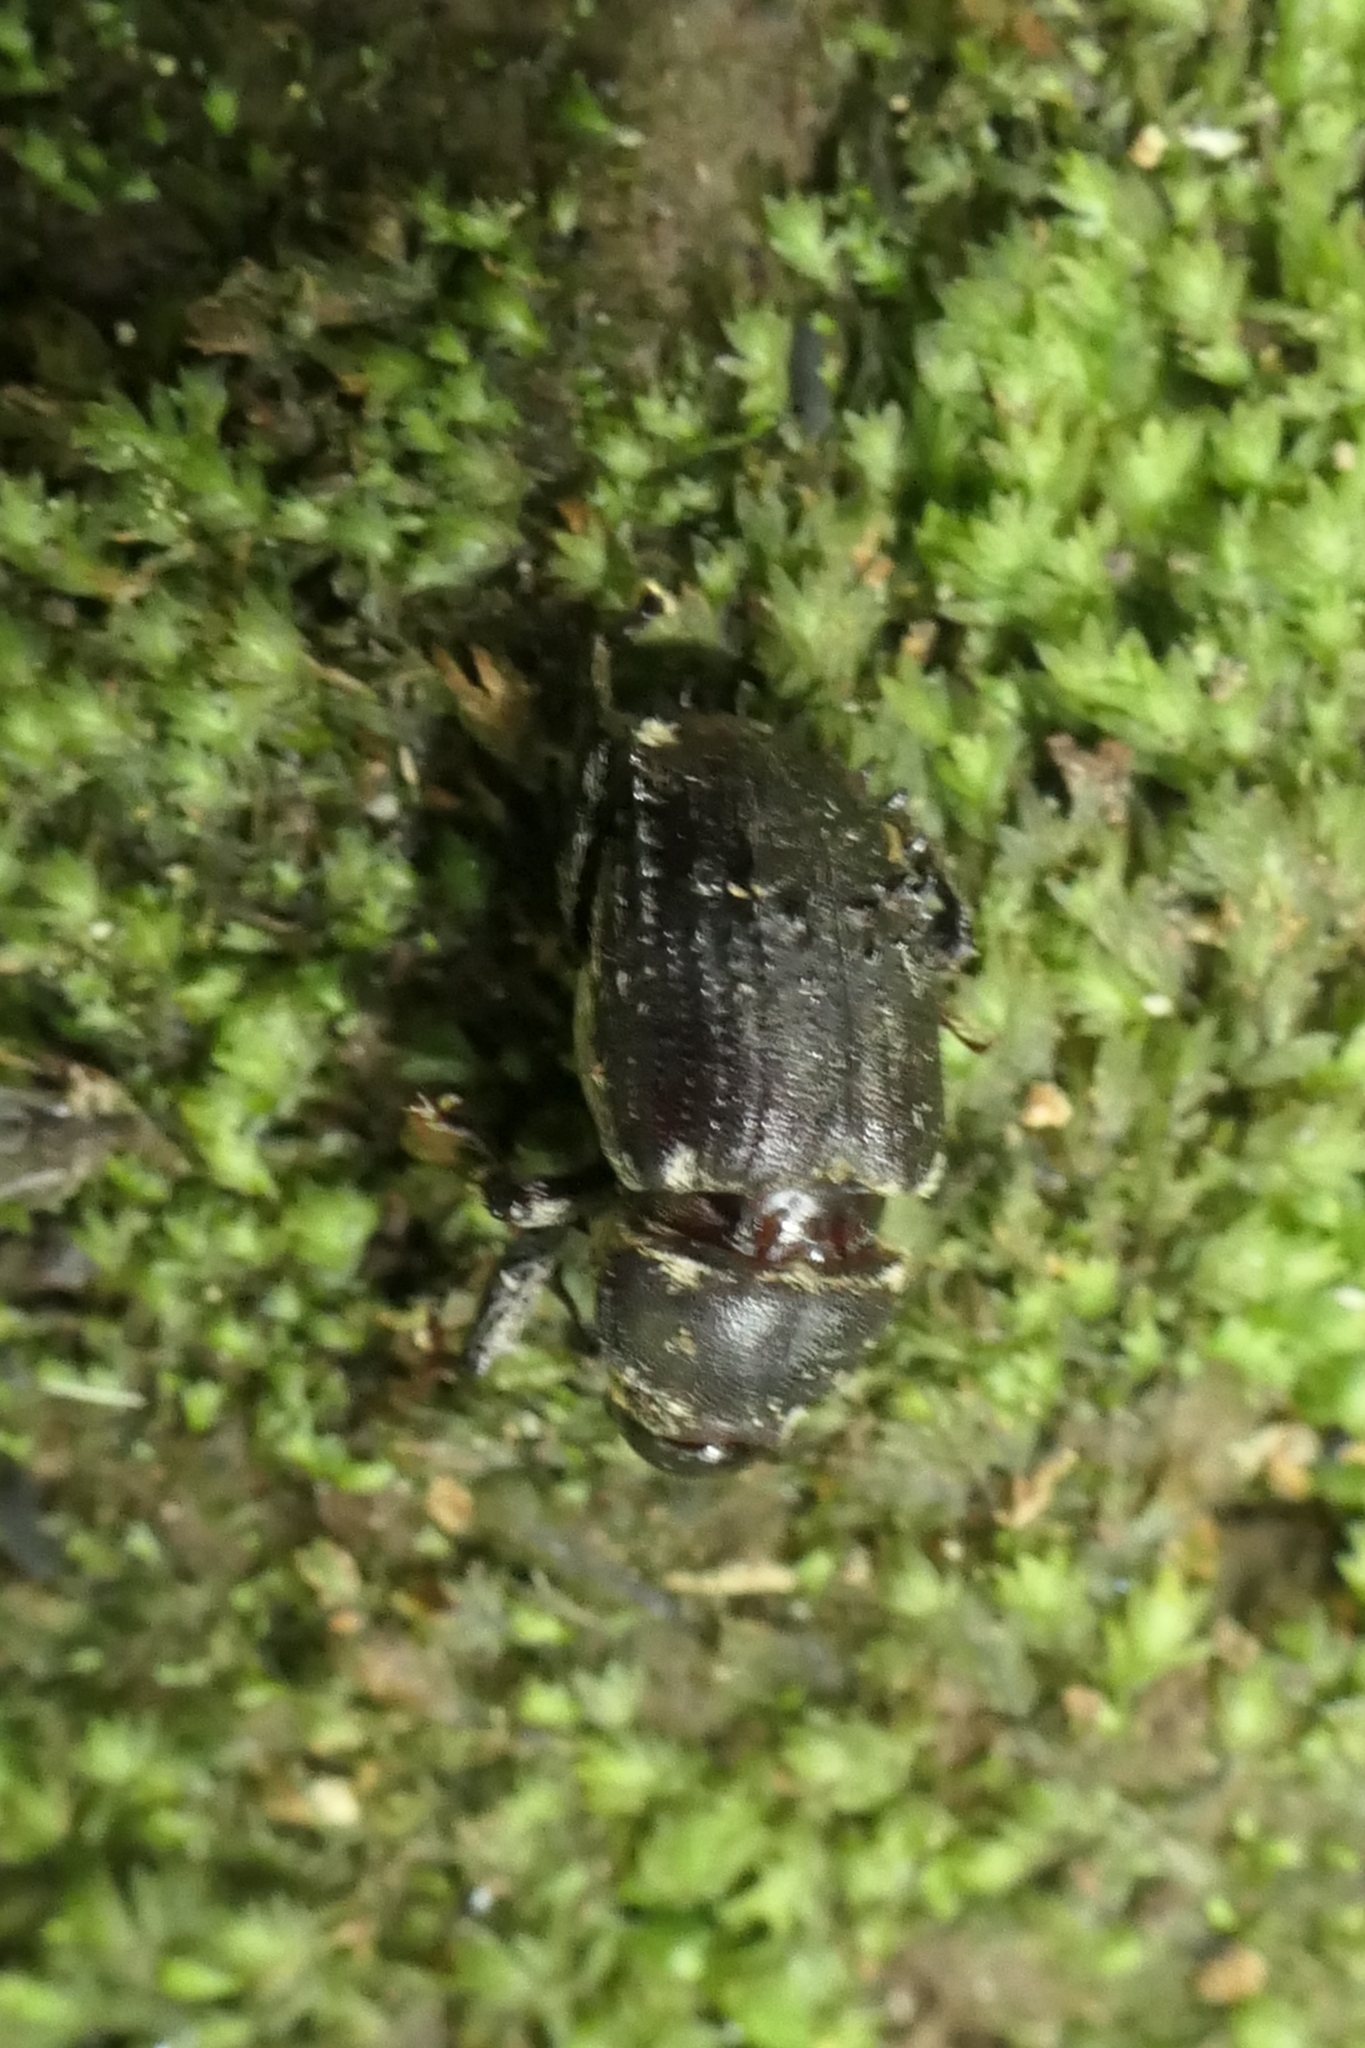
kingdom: Animalia
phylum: Arthropoda
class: Insecta
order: Coleoptera
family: Curculionidae
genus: Psepholax
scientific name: Psepholax coronatus
